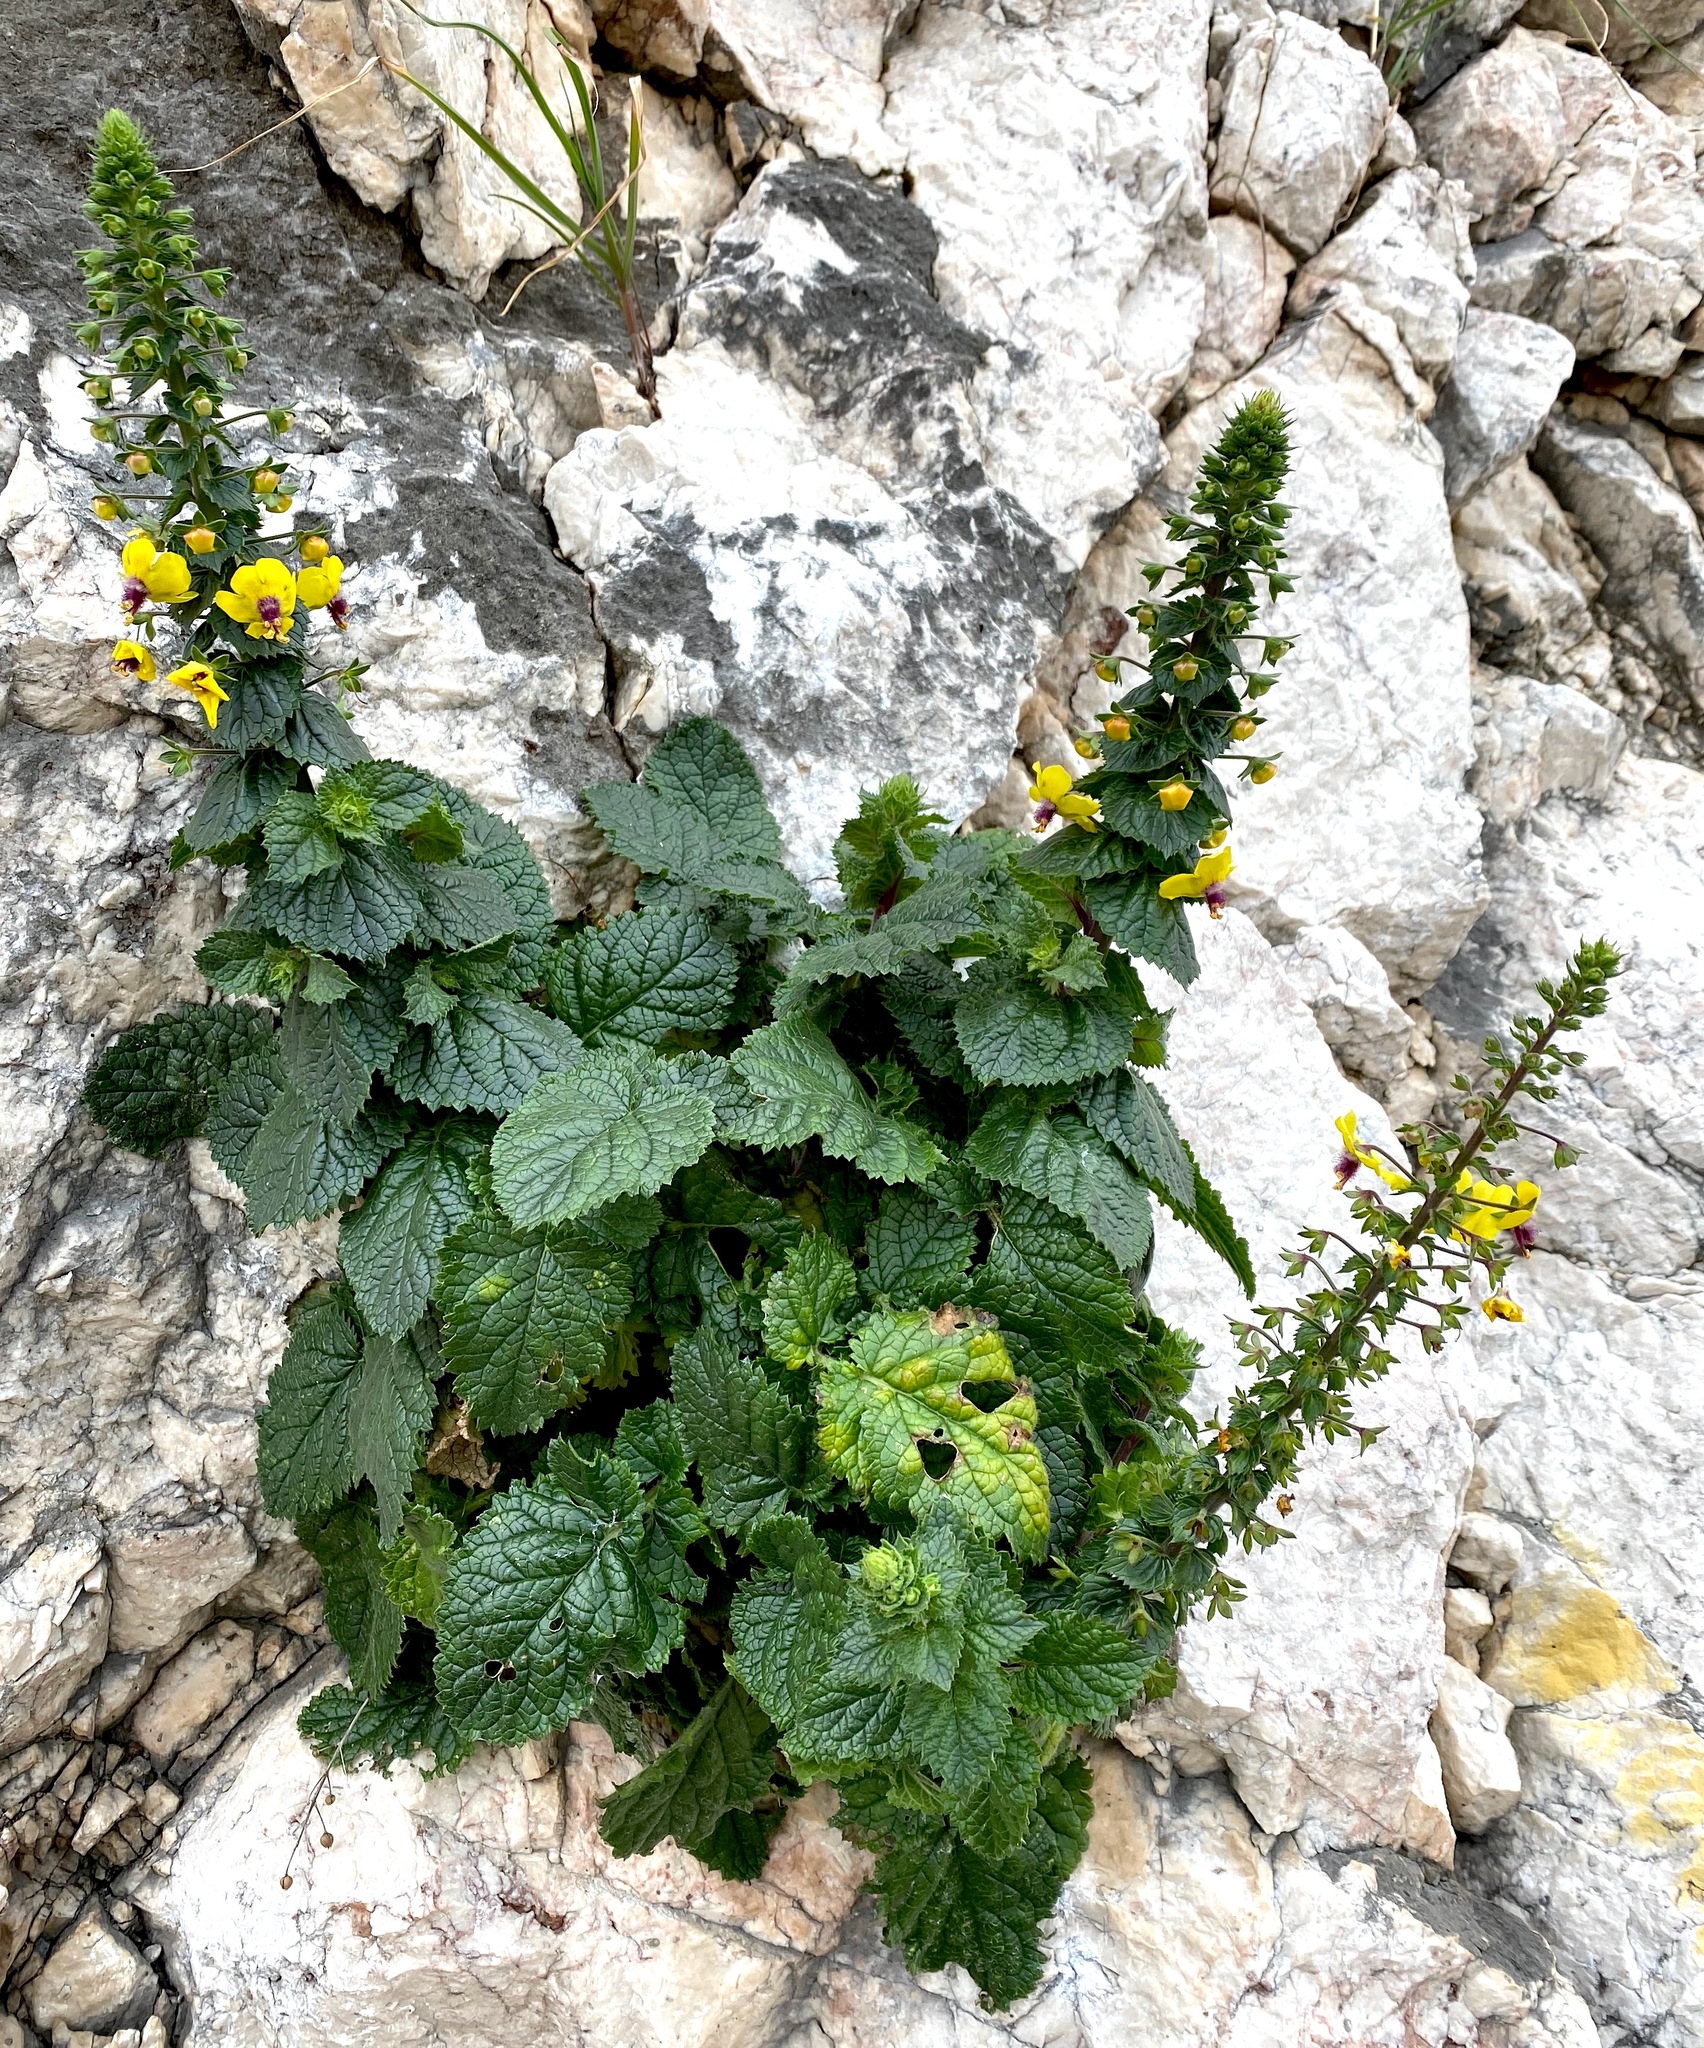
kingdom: Plantae
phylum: Tracheophyta
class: Magnoliopsida
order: Lamiales
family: Scrophulariaceae
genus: Verbascum
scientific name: Verbascum levanticum
